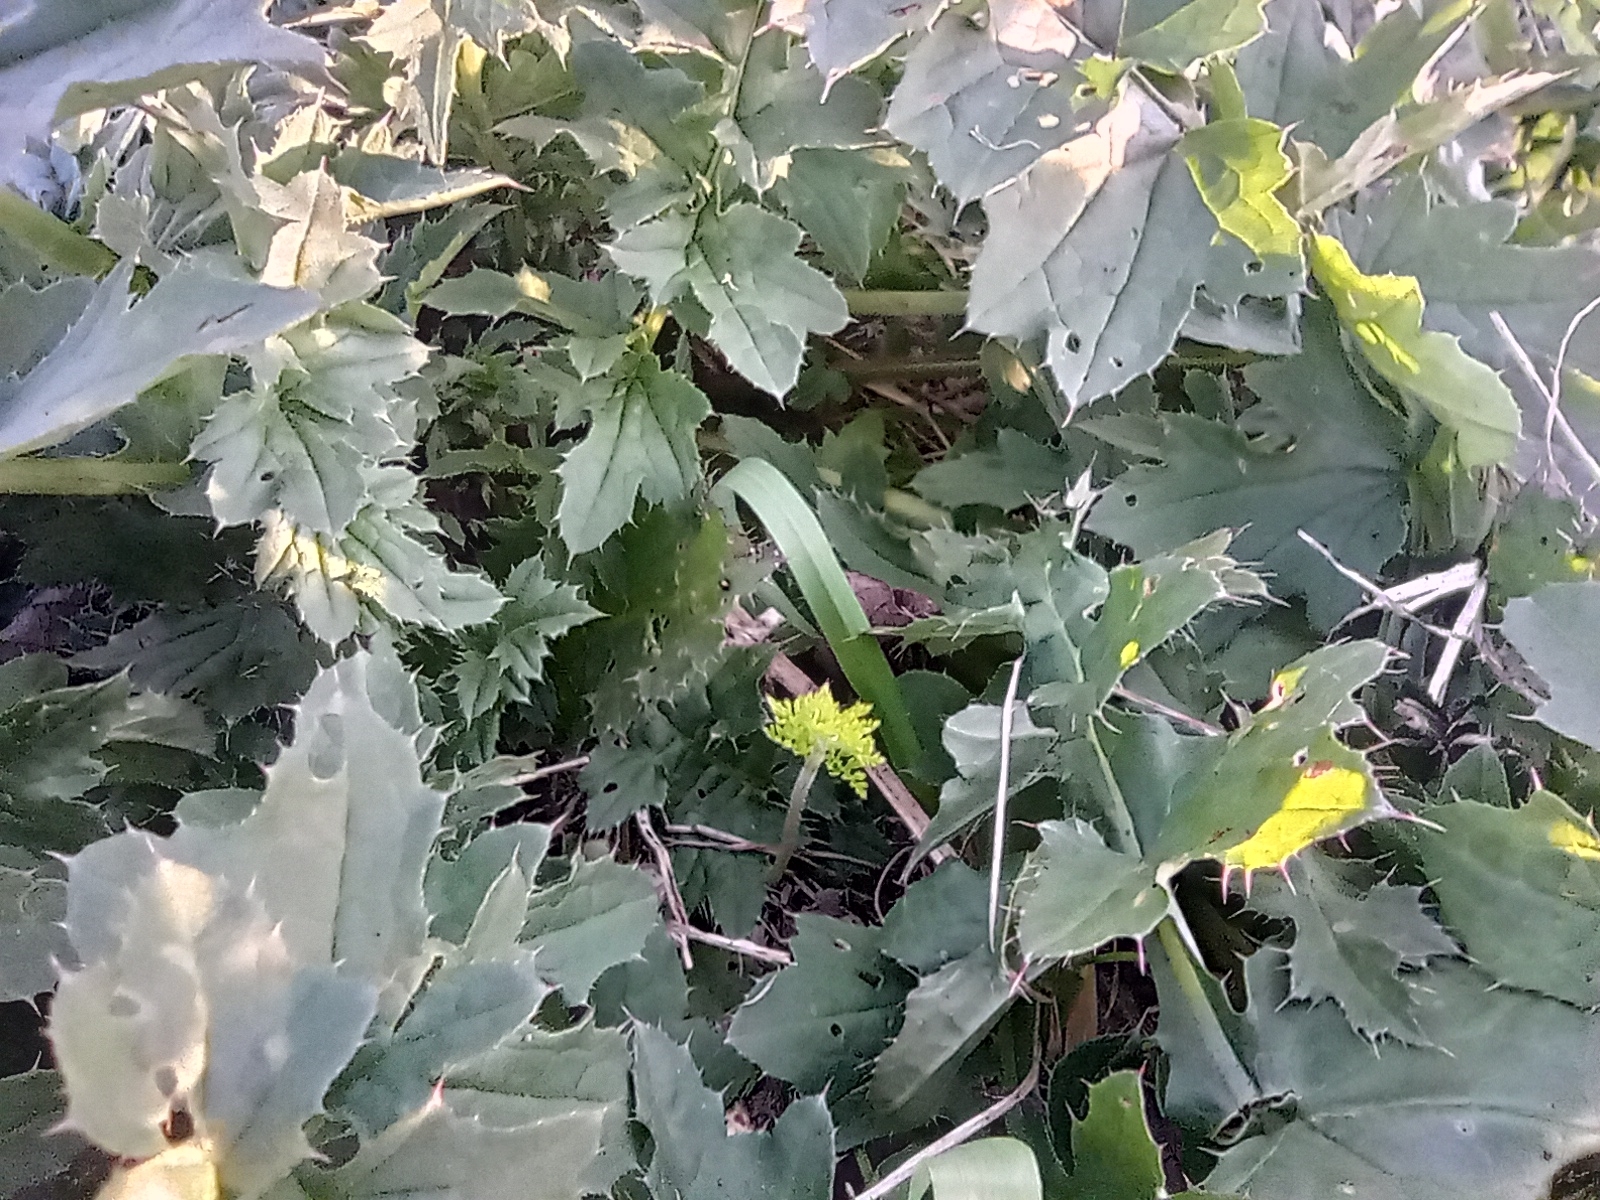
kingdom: Plantae
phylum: Tracheophyta
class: Magnoliopsida
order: Asterales
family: Asteraceae
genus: Carduus
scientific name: Carduus crispus
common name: Welted thistle
